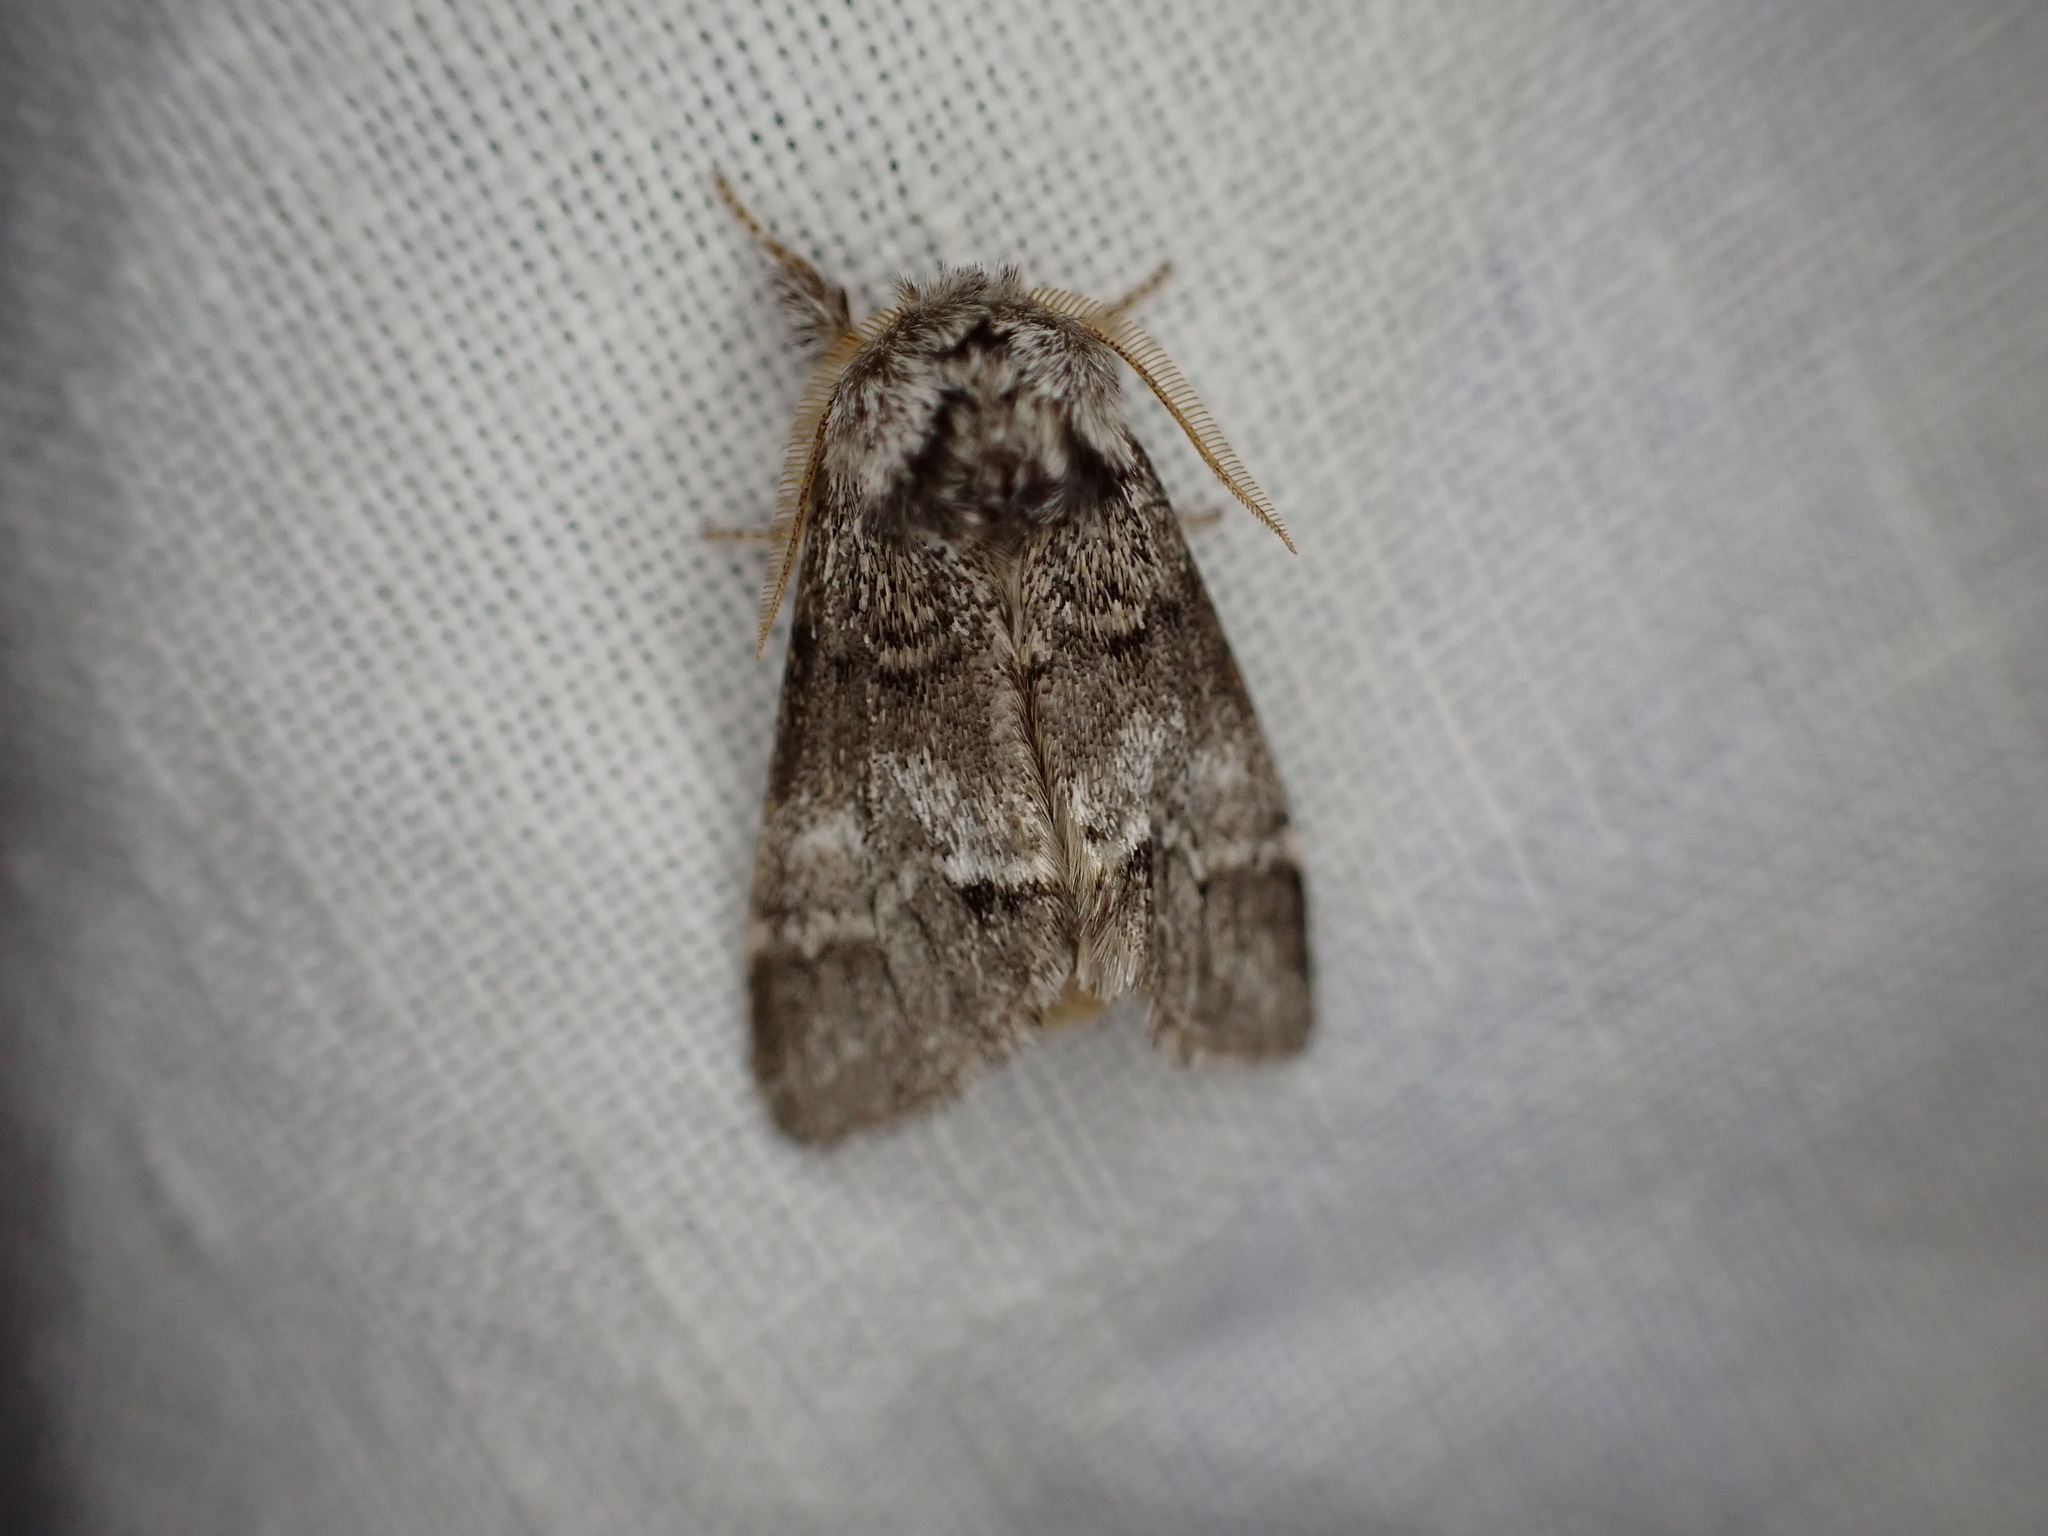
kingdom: Animalia
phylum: Arthropoda
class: Insecta
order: Lepidoptera
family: Notodontidae
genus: Drymonia
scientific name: Drymonia dodonaea
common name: Marbled brown
